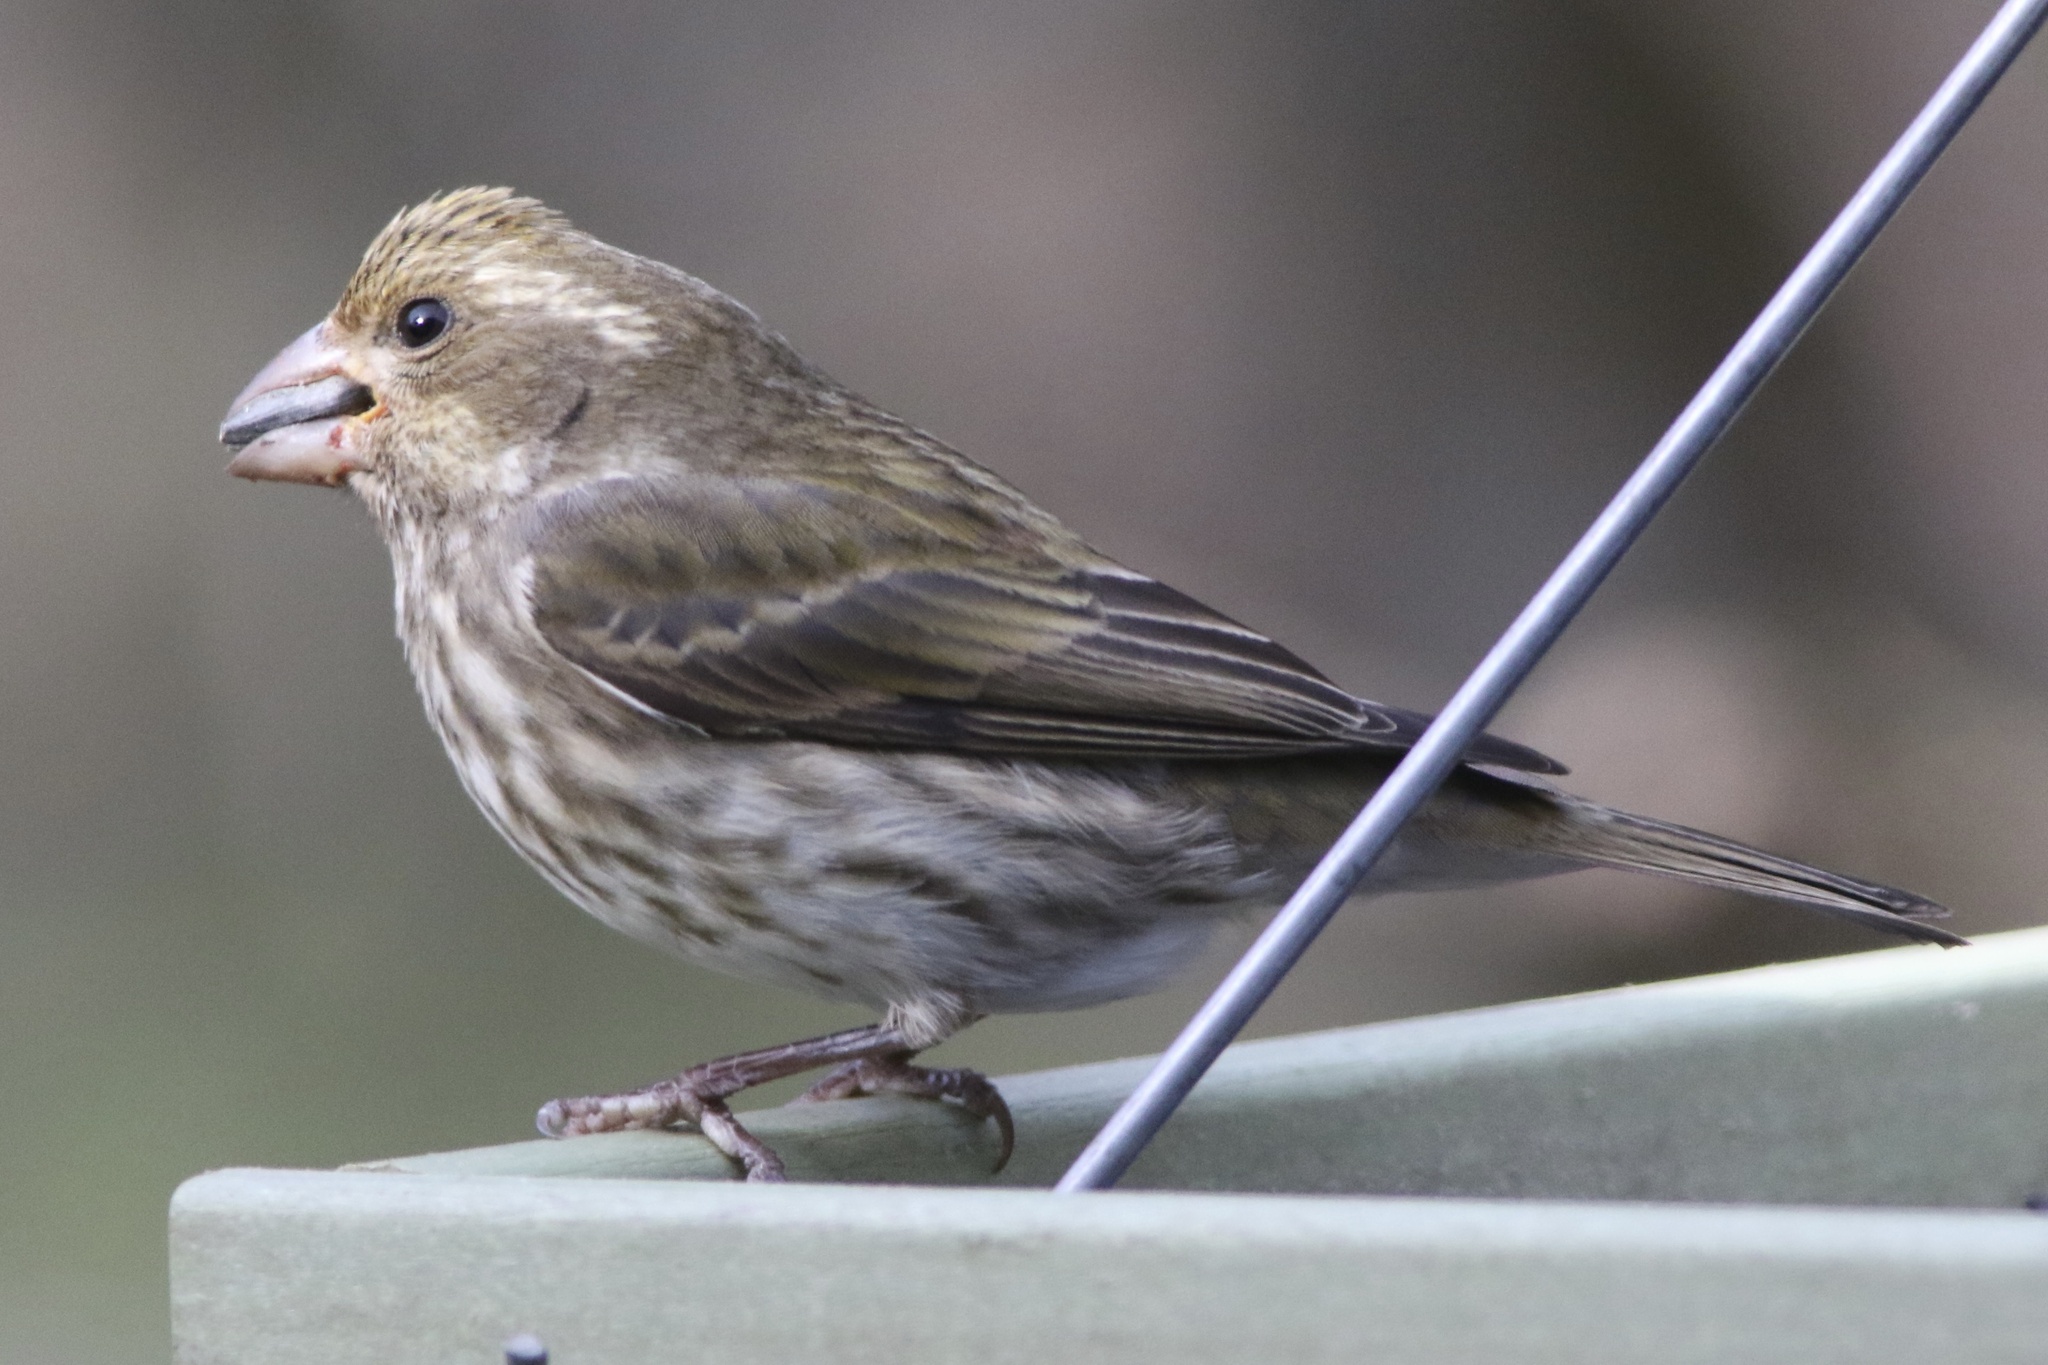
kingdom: Animalia
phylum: Chordata
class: Aves
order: Passeriformes
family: Fringillidae
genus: Haemorhous
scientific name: Haemorhous purpureus
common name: Purple finch
